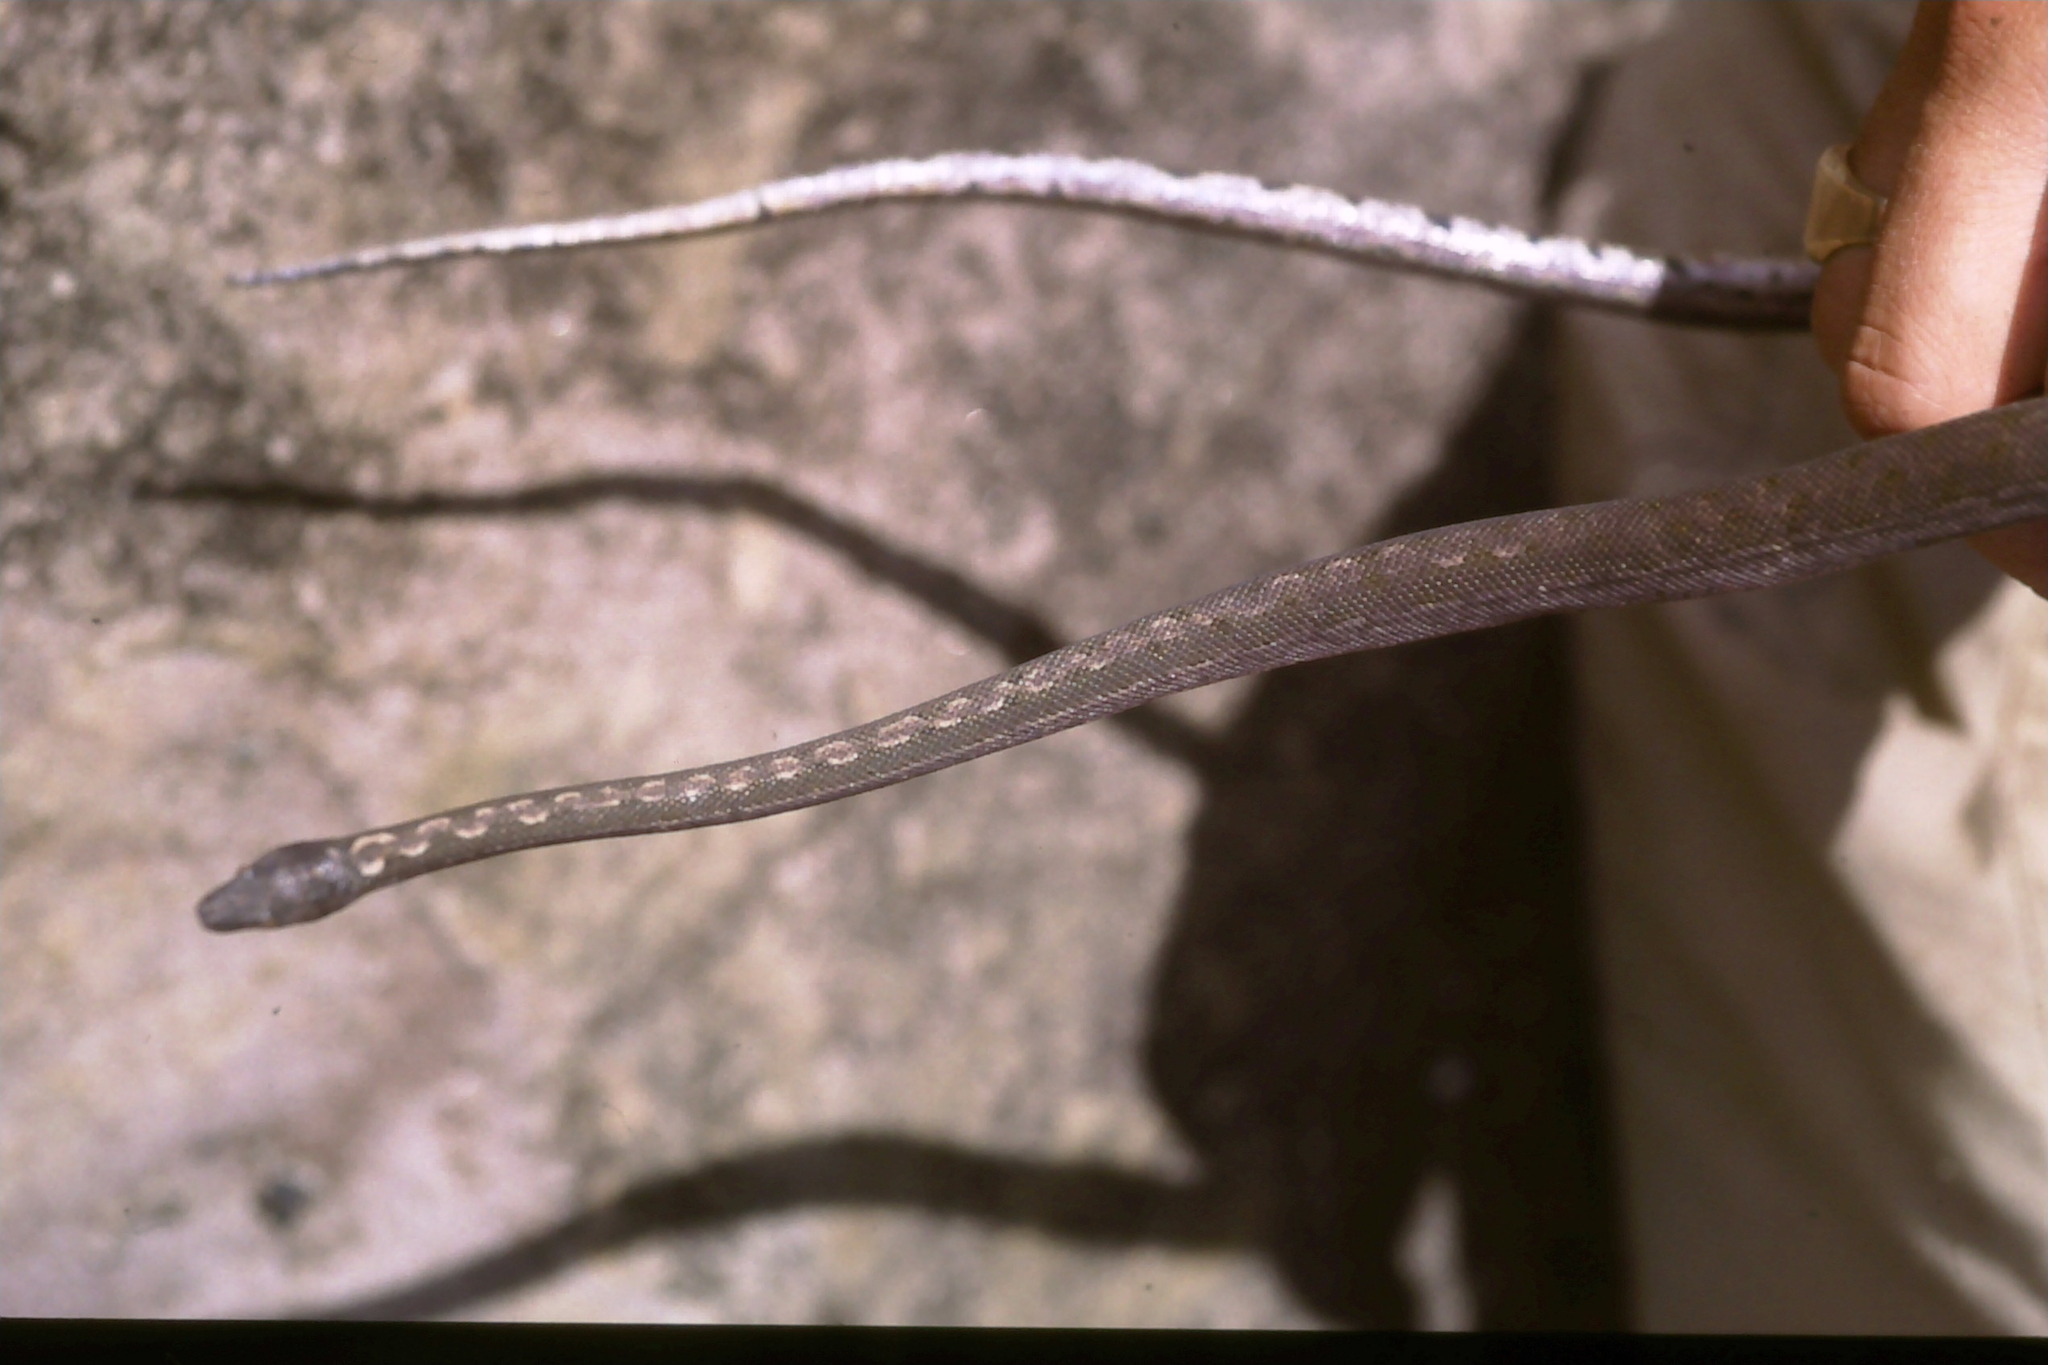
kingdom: Animalia
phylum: Chordata
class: Squamata
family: Bolyeriidae
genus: Casarea
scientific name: Casarea dussumieri
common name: Keel-scaled boa
